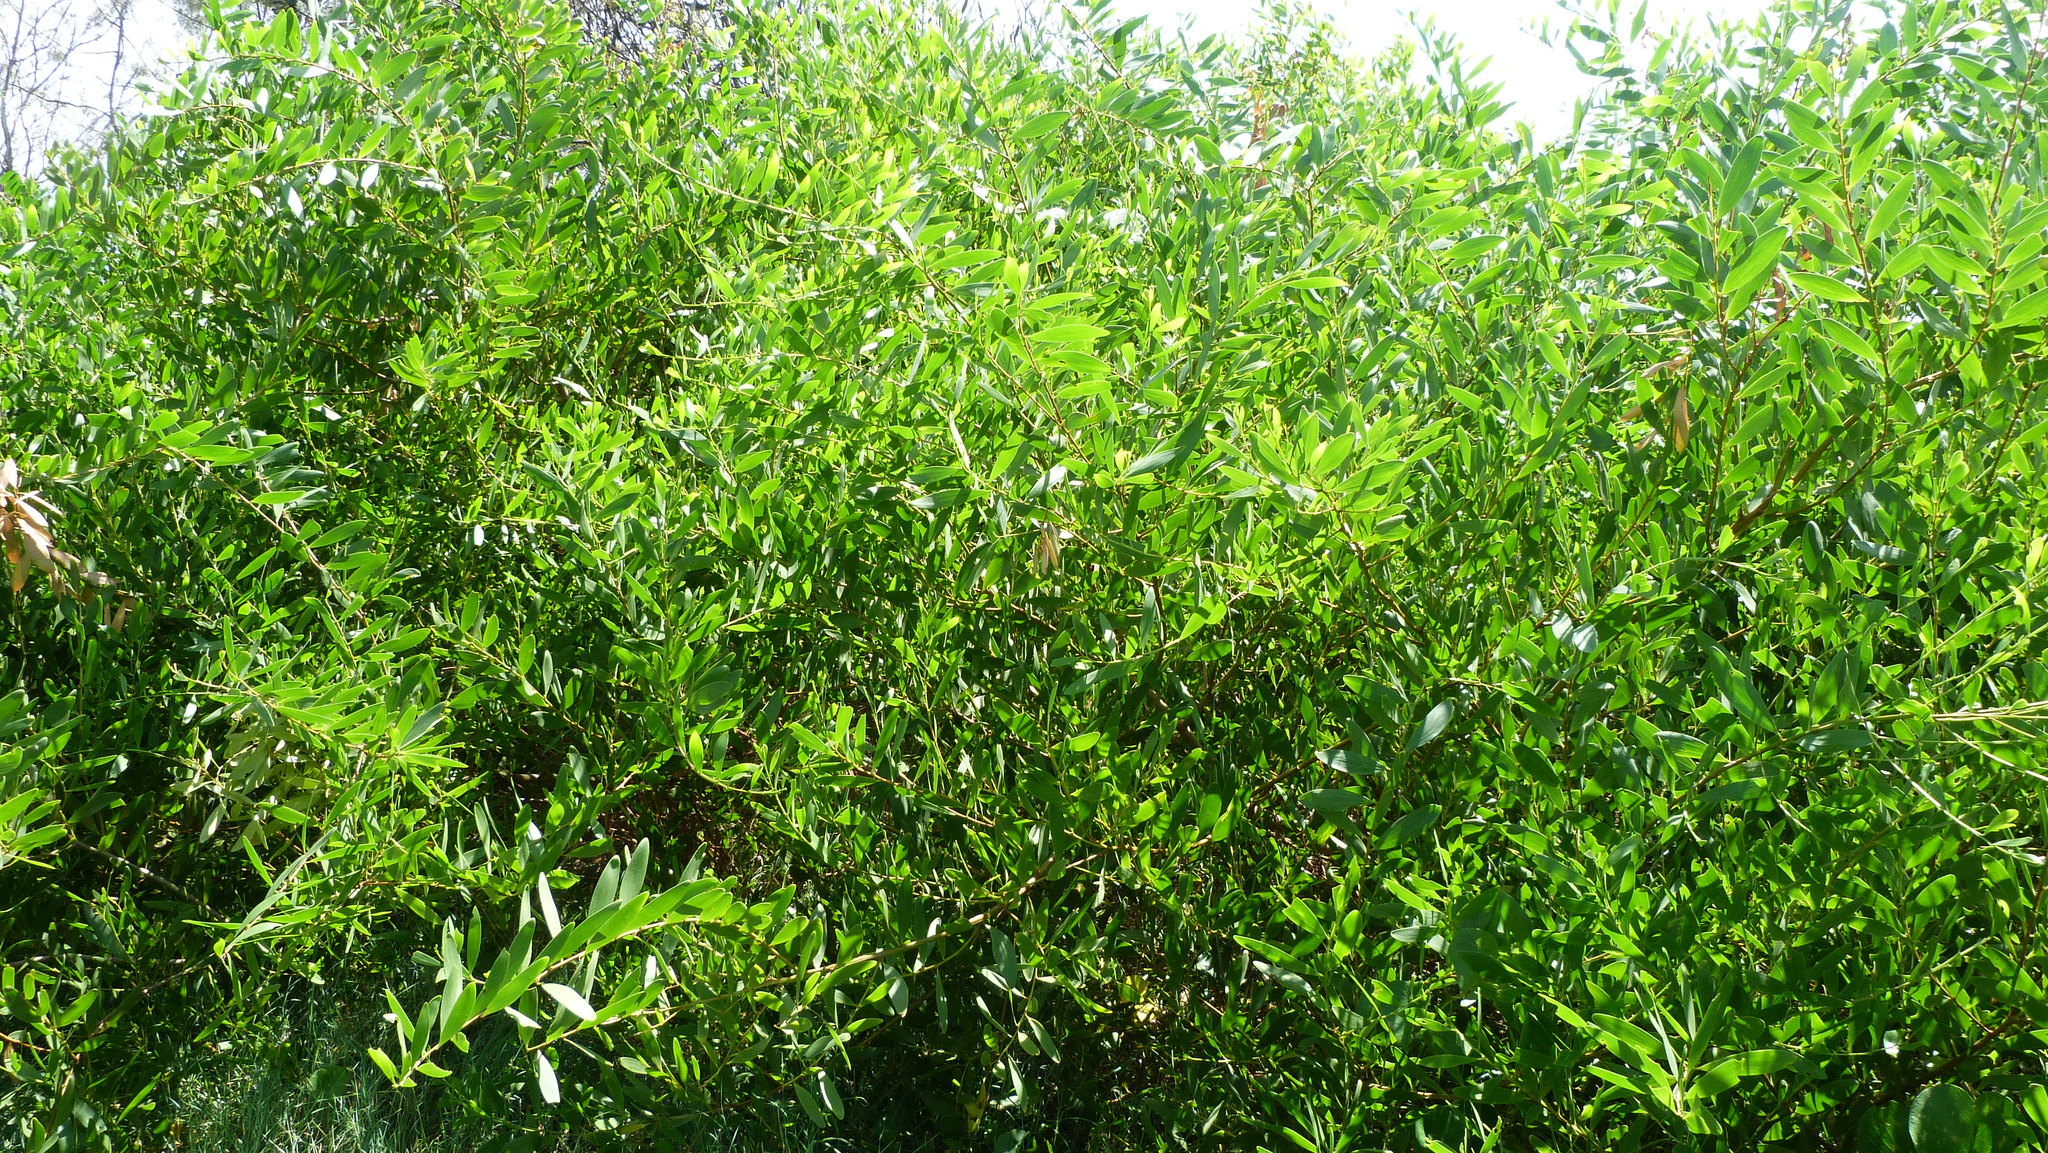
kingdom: Plantae
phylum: Tracheophyta
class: Magnoliopsida
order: Fabales
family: Fabaceae
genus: Acacia
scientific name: Acacia longifolia
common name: Sydney golden wattle
